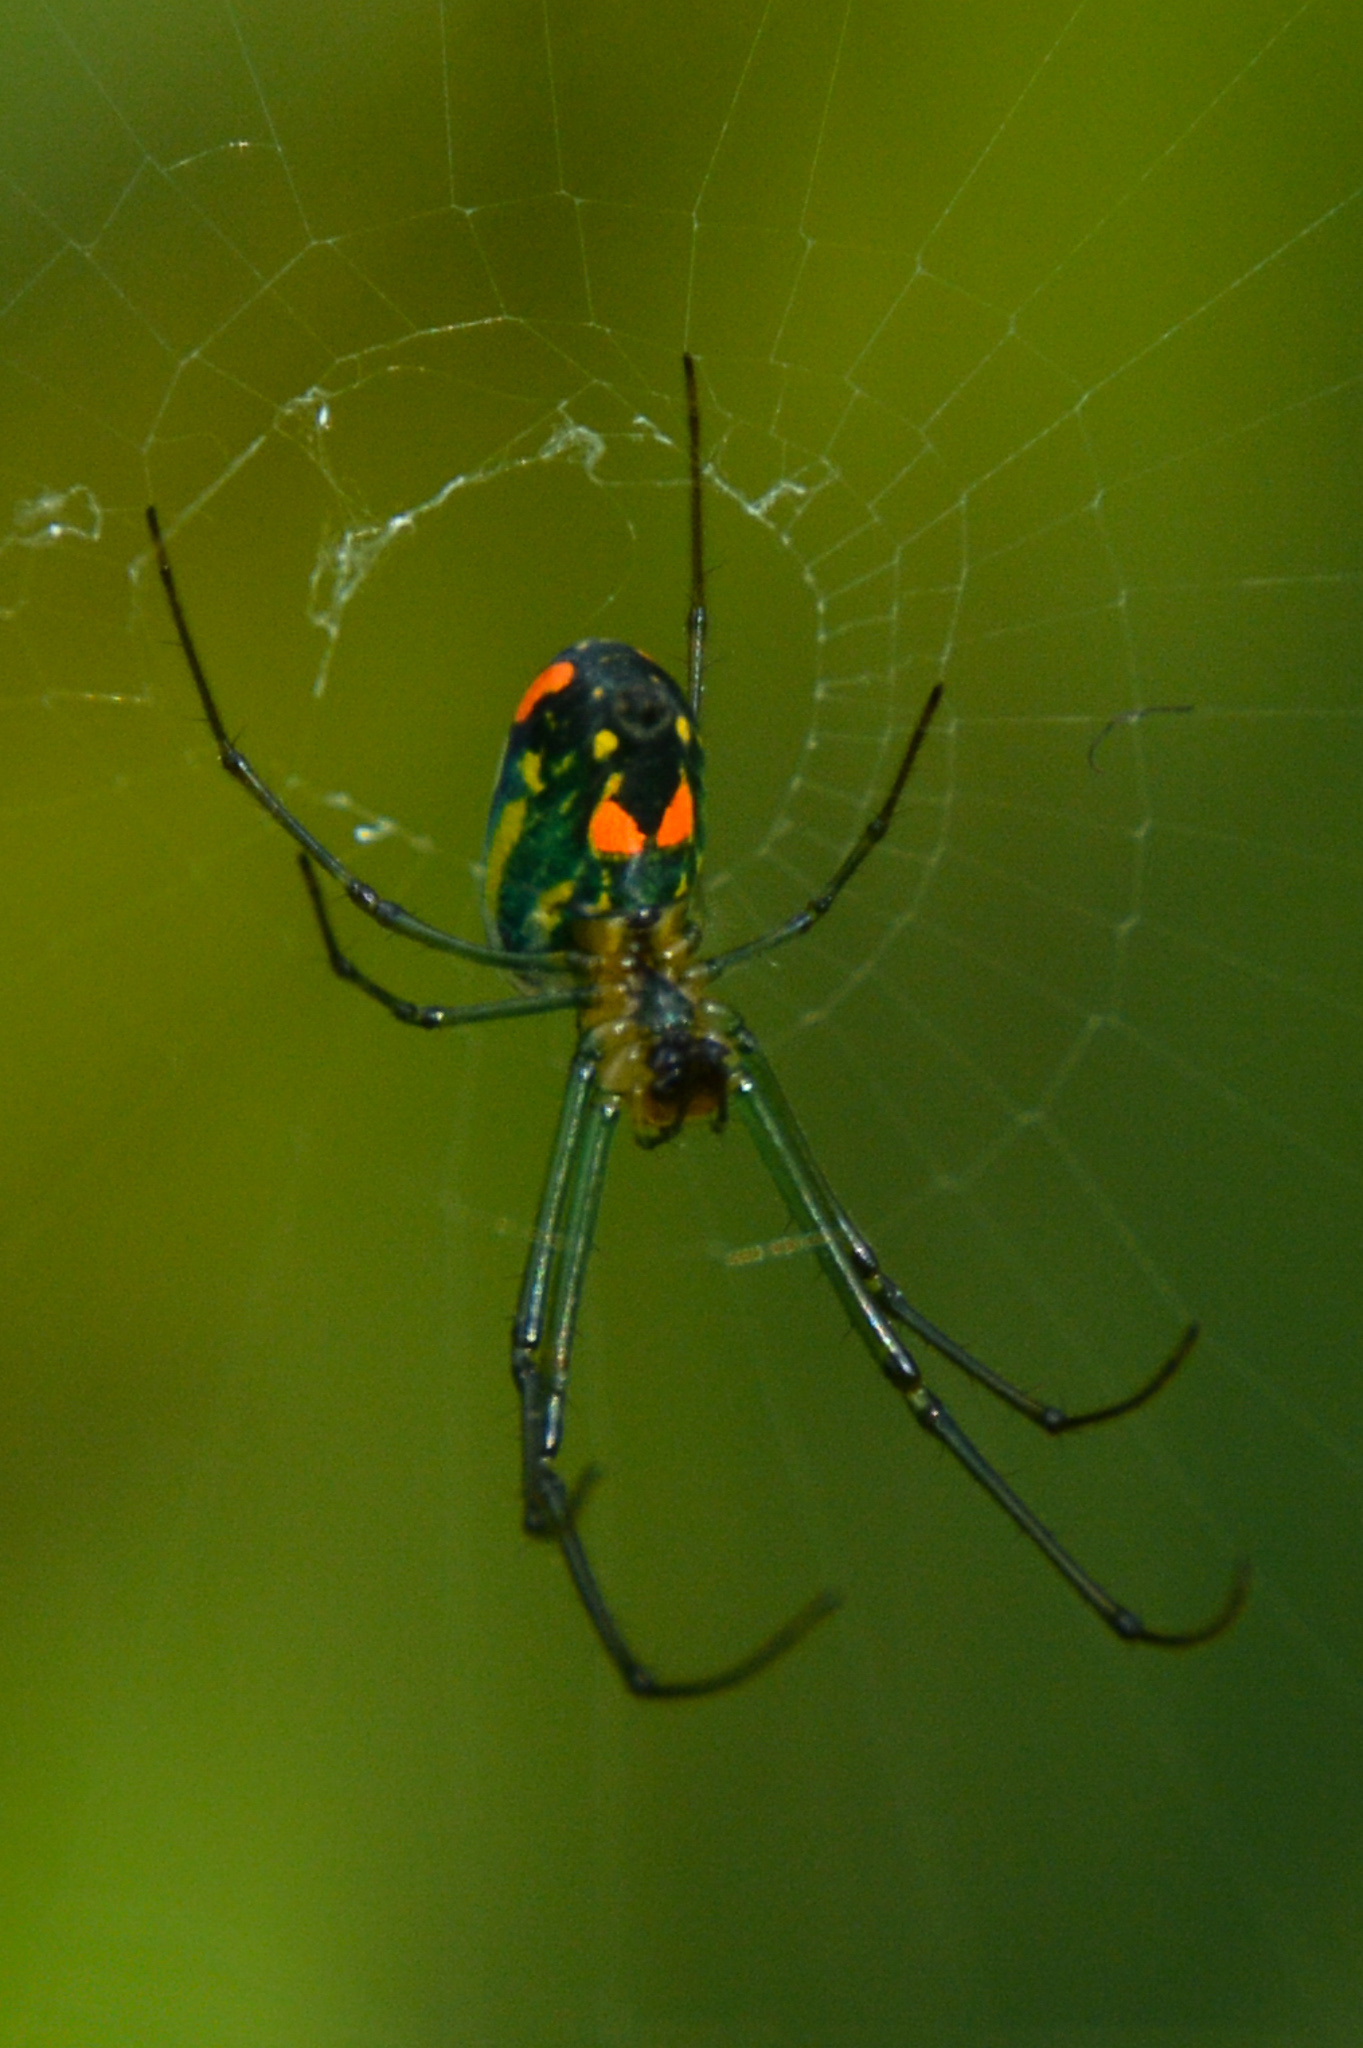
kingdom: Animalia
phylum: Arthropoda
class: Arachnida
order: Araneae
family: Tetragnathidae
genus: Leucauge
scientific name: Leucauge argyrobapta
